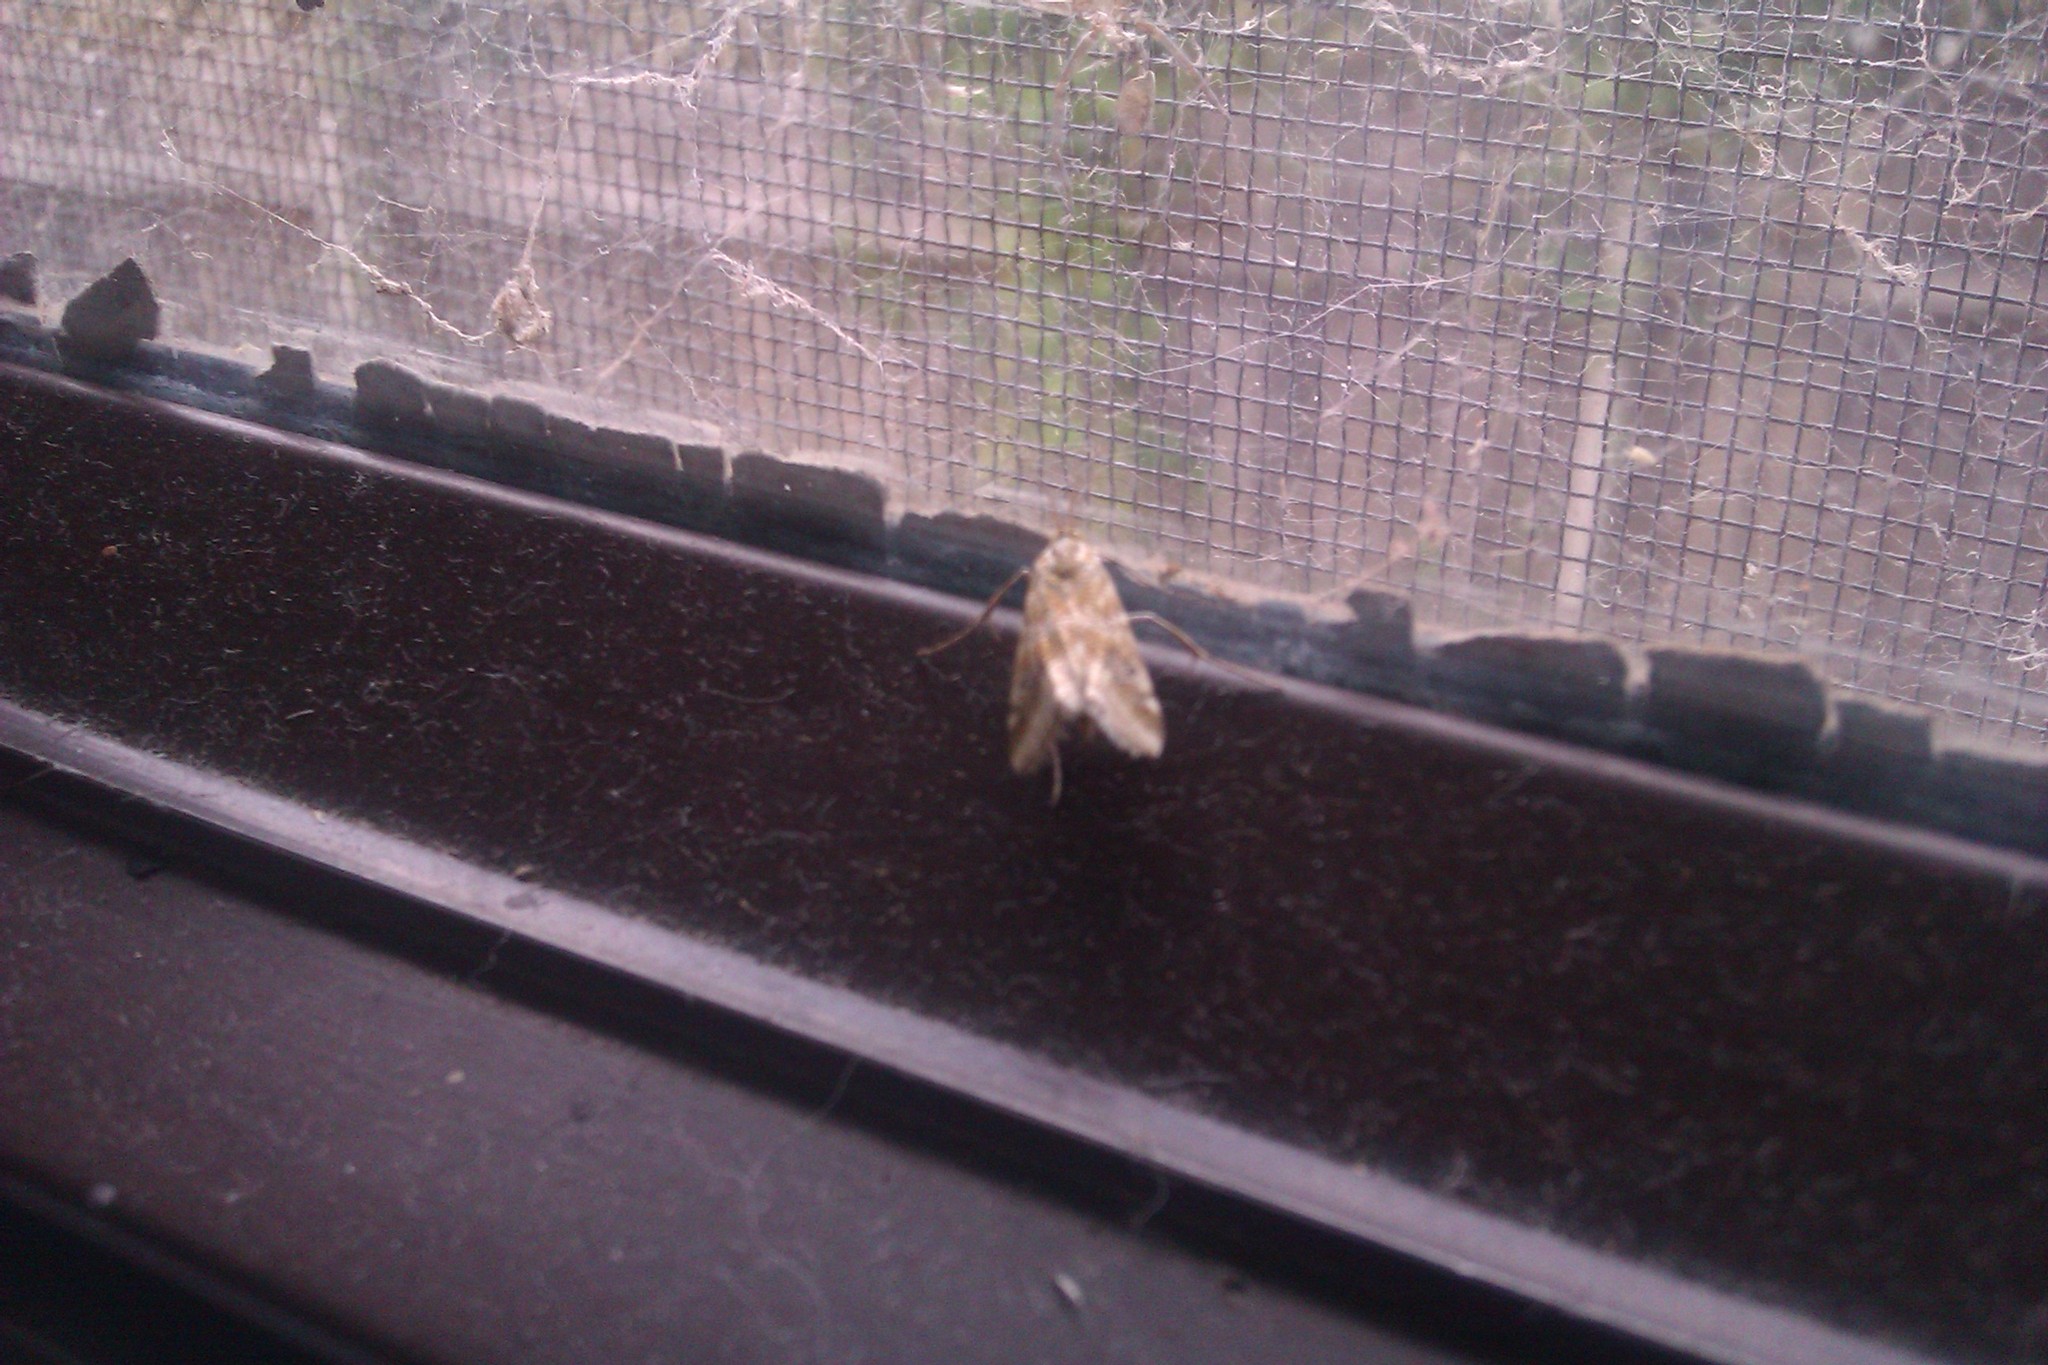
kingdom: Animalia
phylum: Arthropoda
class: Insecta
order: Lepidoptera
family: Crambidae
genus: Hellula
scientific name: Hellula hydralis
